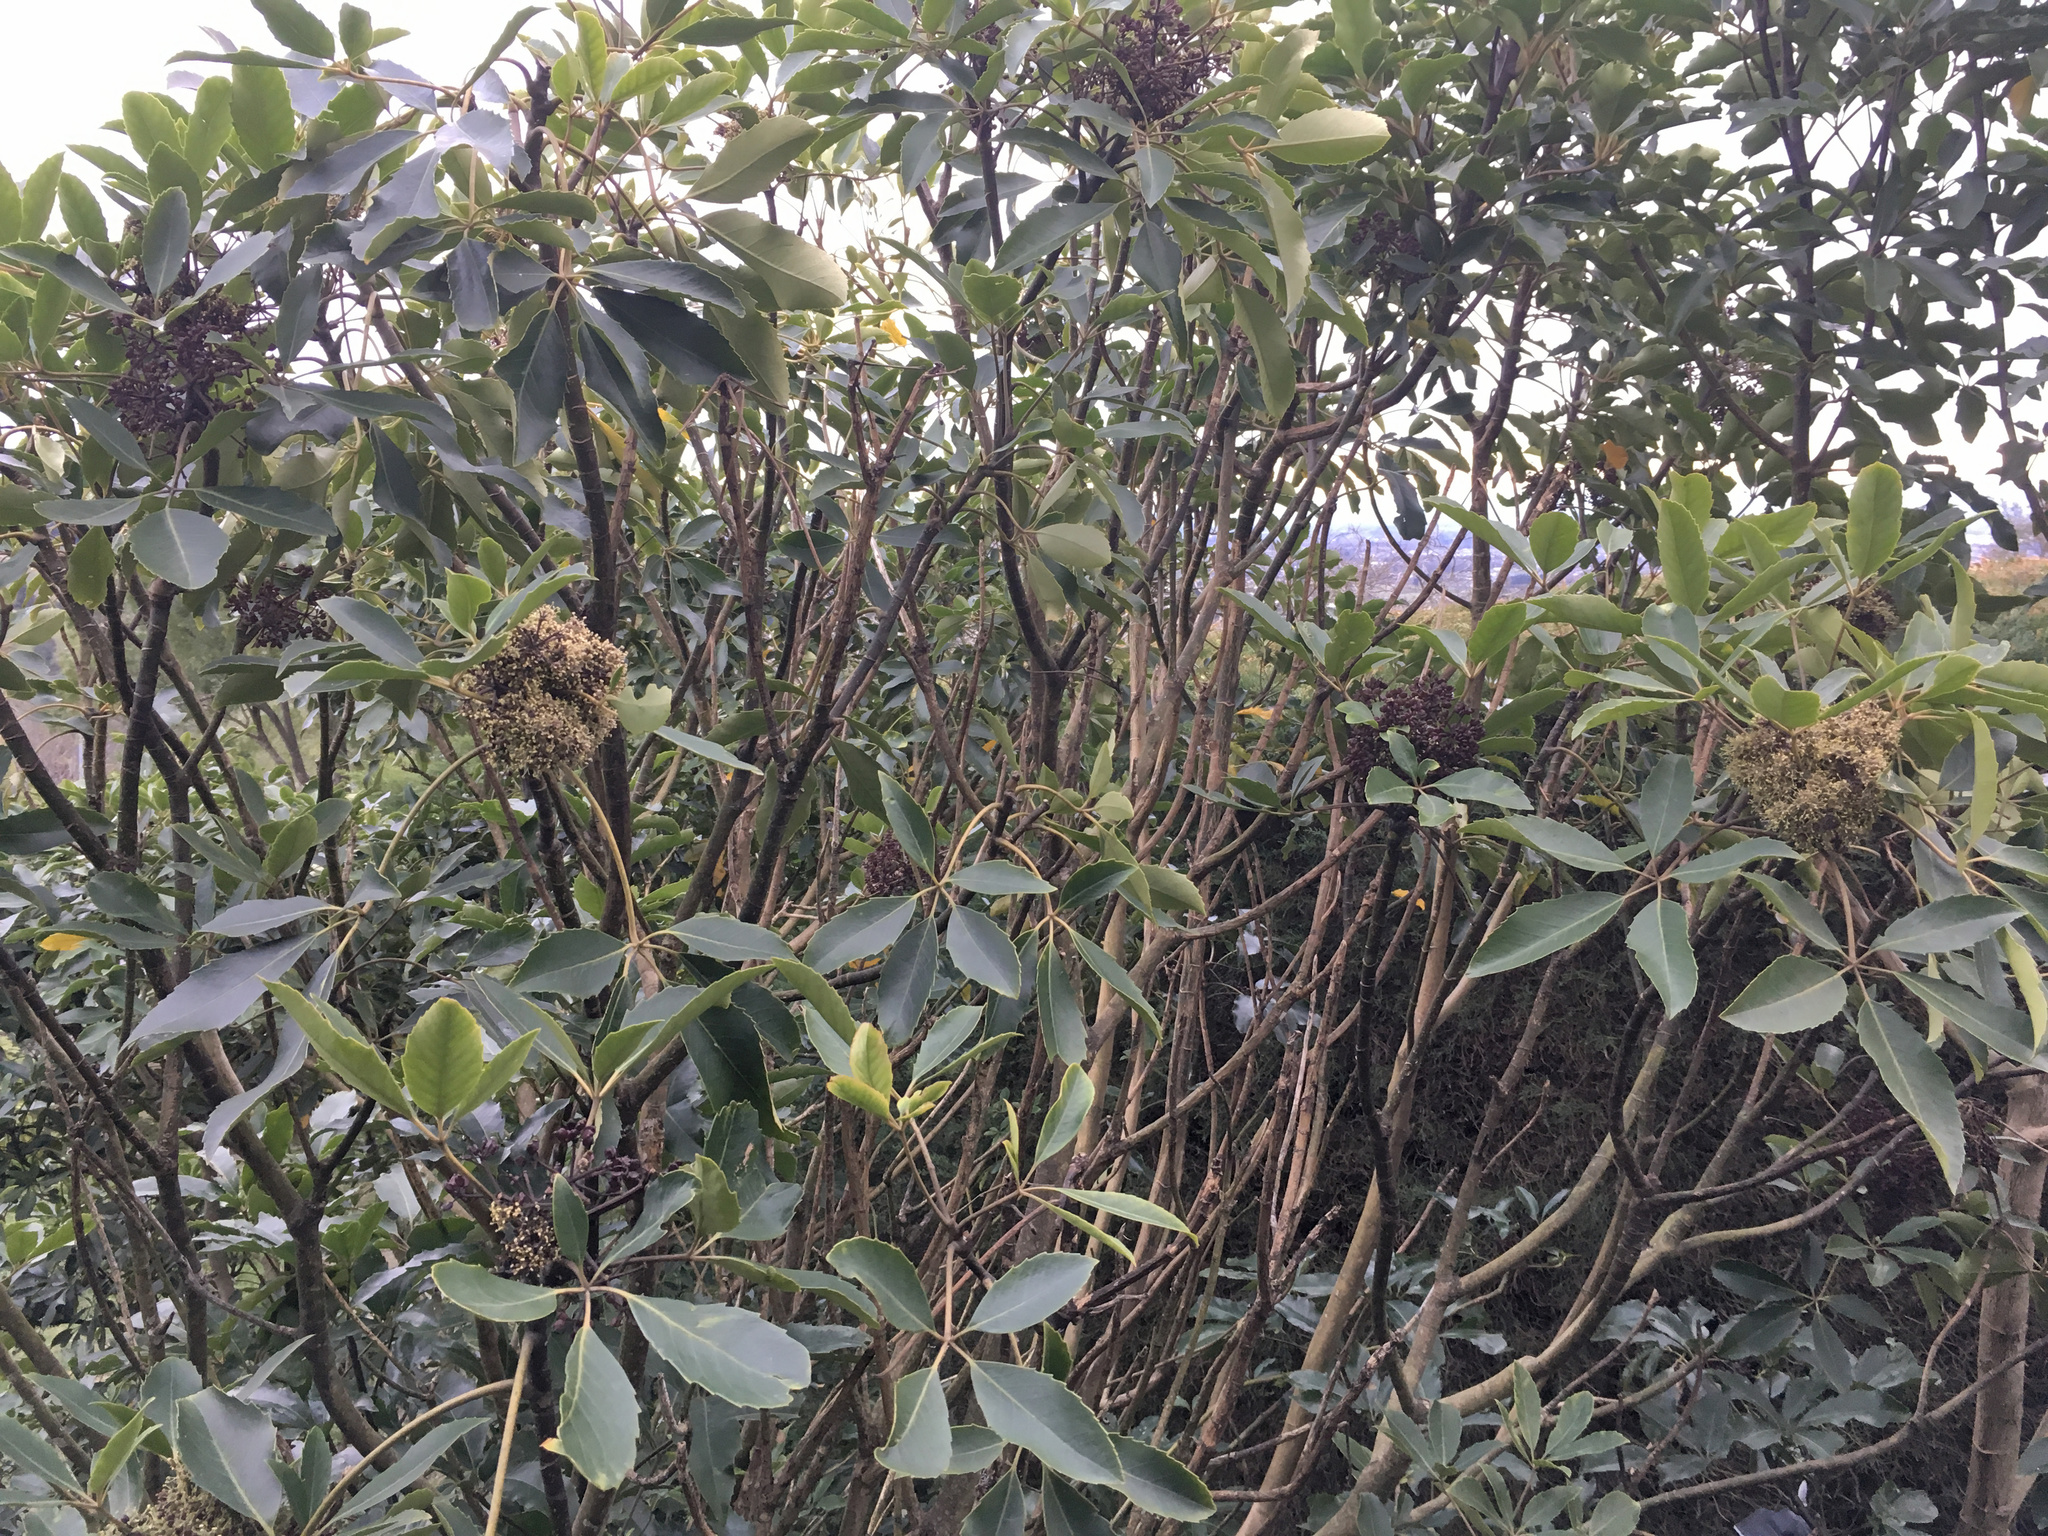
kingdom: Plantae
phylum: Tracheophyta
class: Magnoliopsida
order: Apiales
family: Araliaceae
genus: Neopanax
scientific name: Neopanax arboreus
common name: Five-fingers
